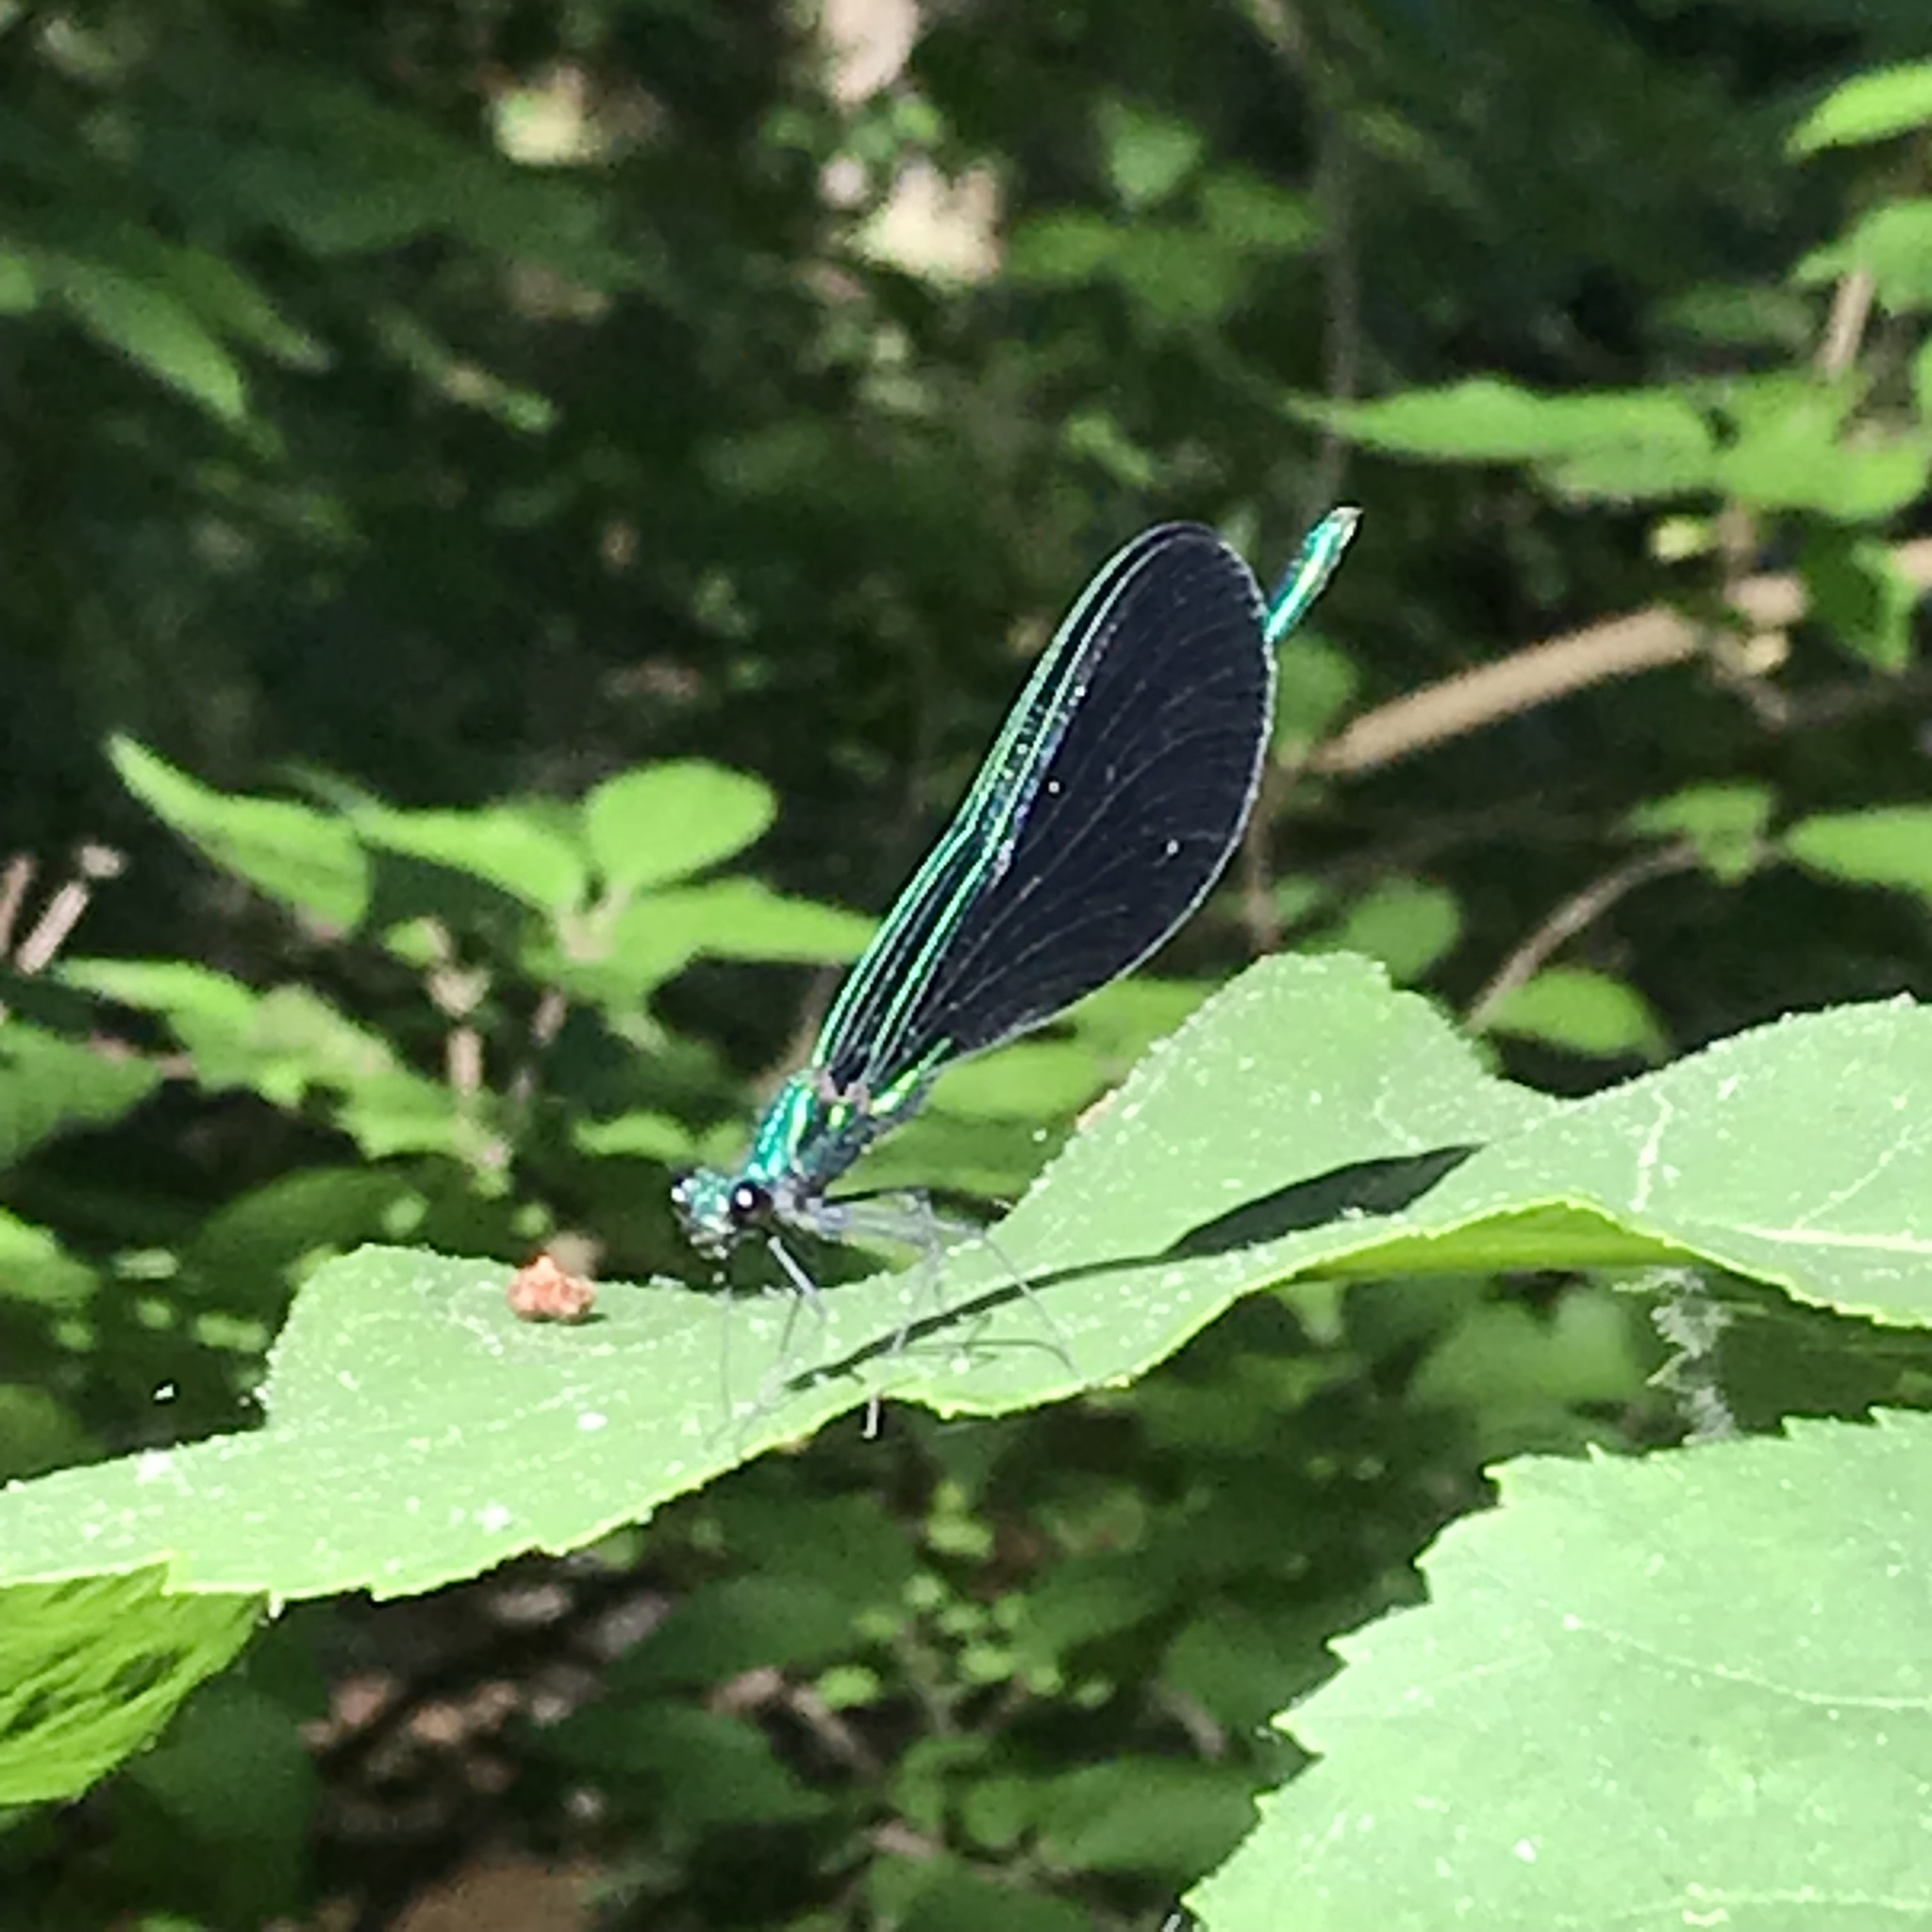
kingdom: Animalia
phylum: Arthropoda
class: Insecta
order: Odonata
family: Calopterygidae
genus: Calopteryx
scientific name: Calopteryx maculata
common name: Ebony jewelwing
